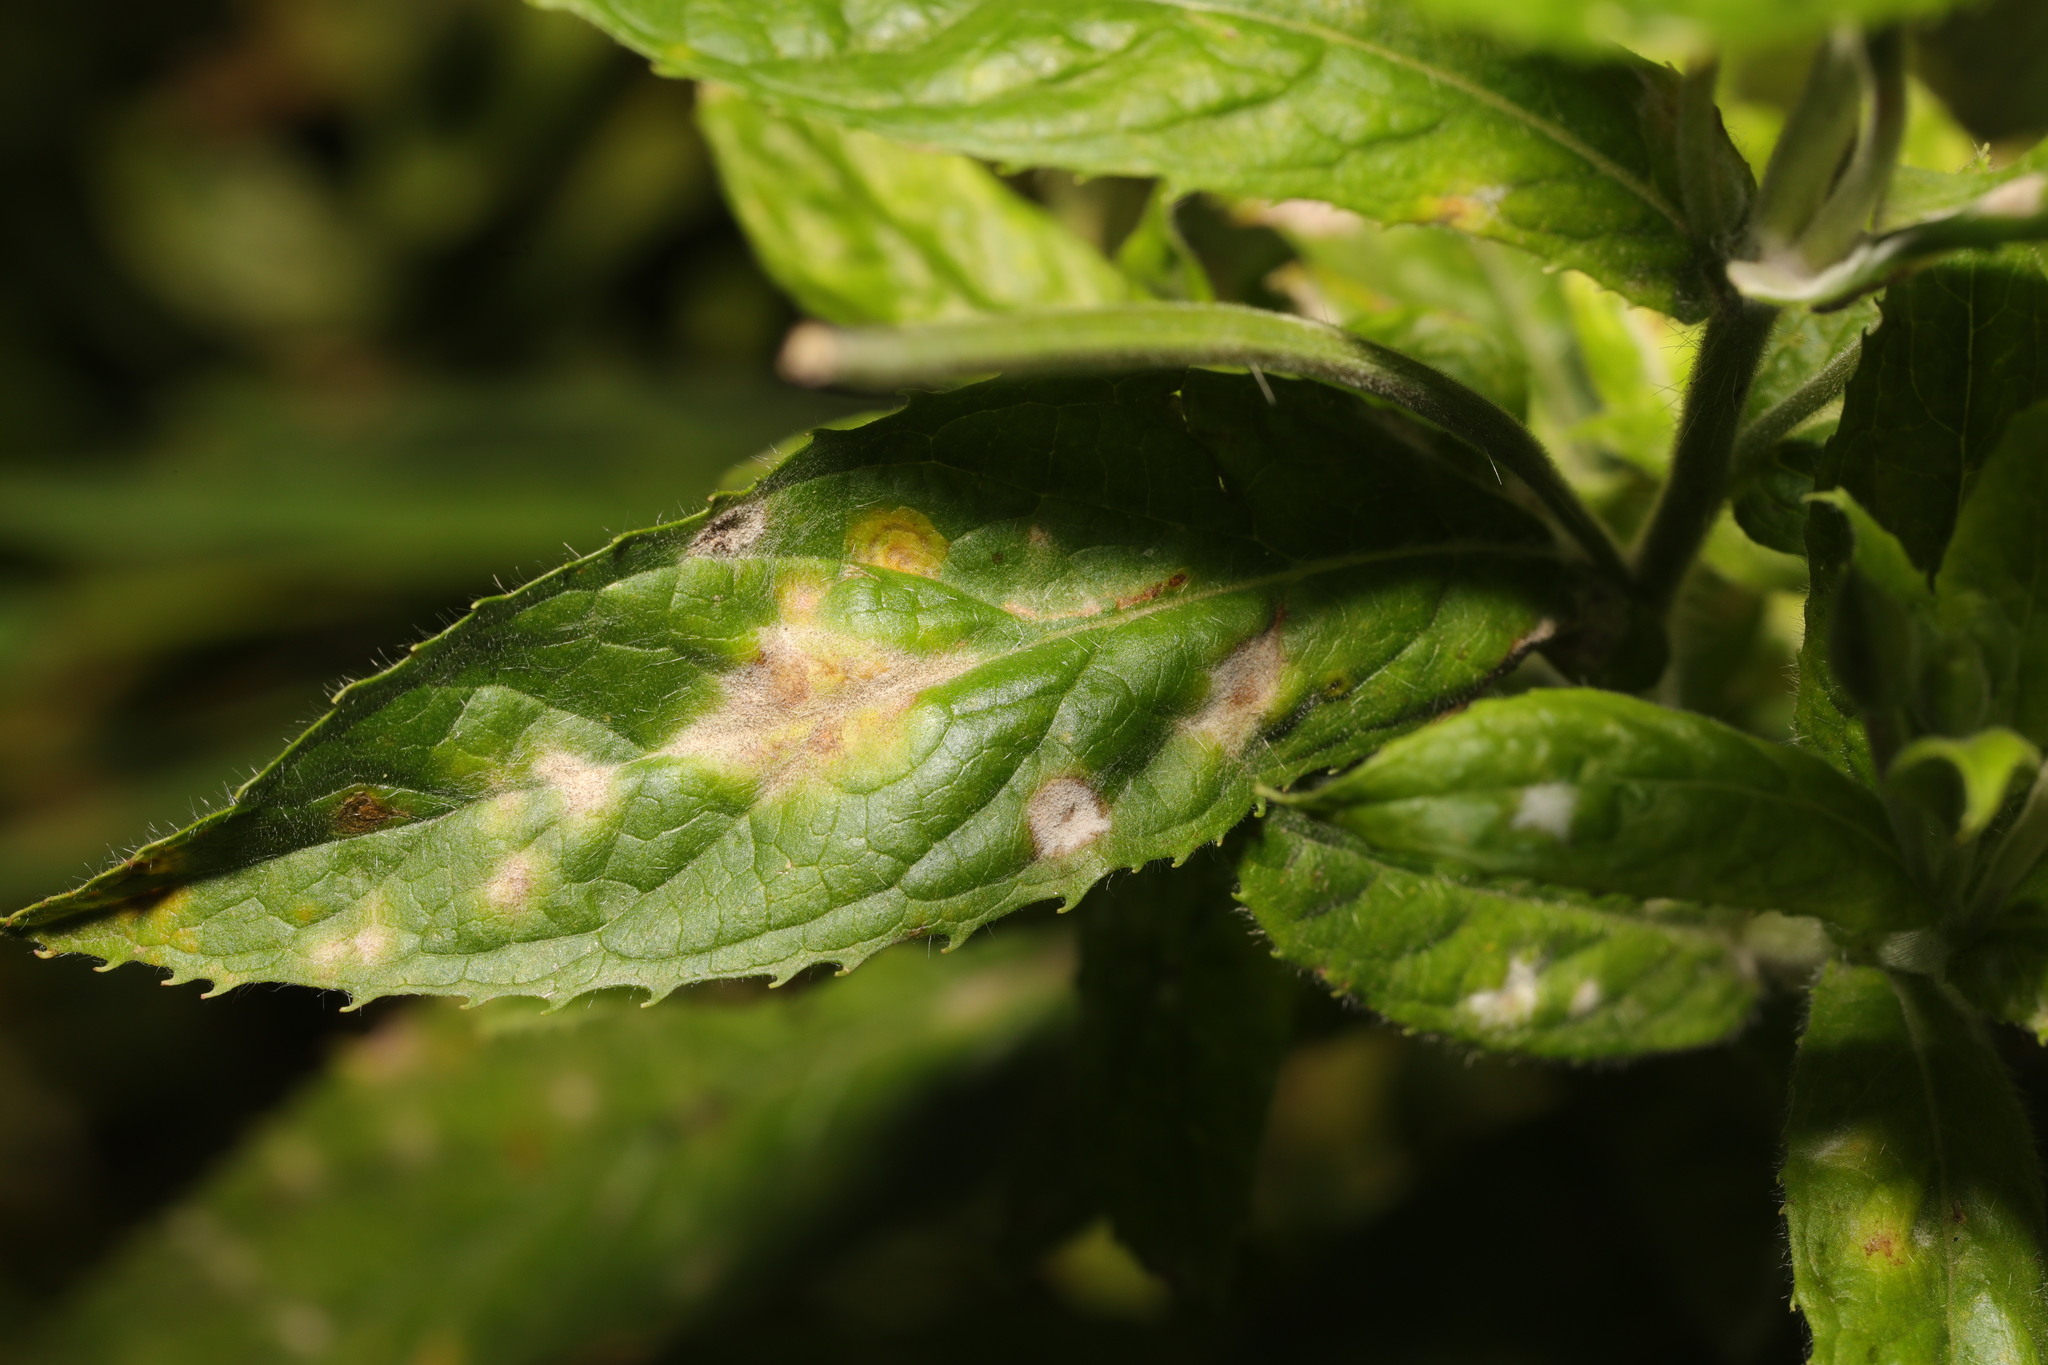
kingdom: Fungi
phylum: Ascomycota
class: Leotiomycetes
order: Helotiales
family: Erysiphaceae
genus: Podosphaera
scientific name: Podosphaera epilobii
